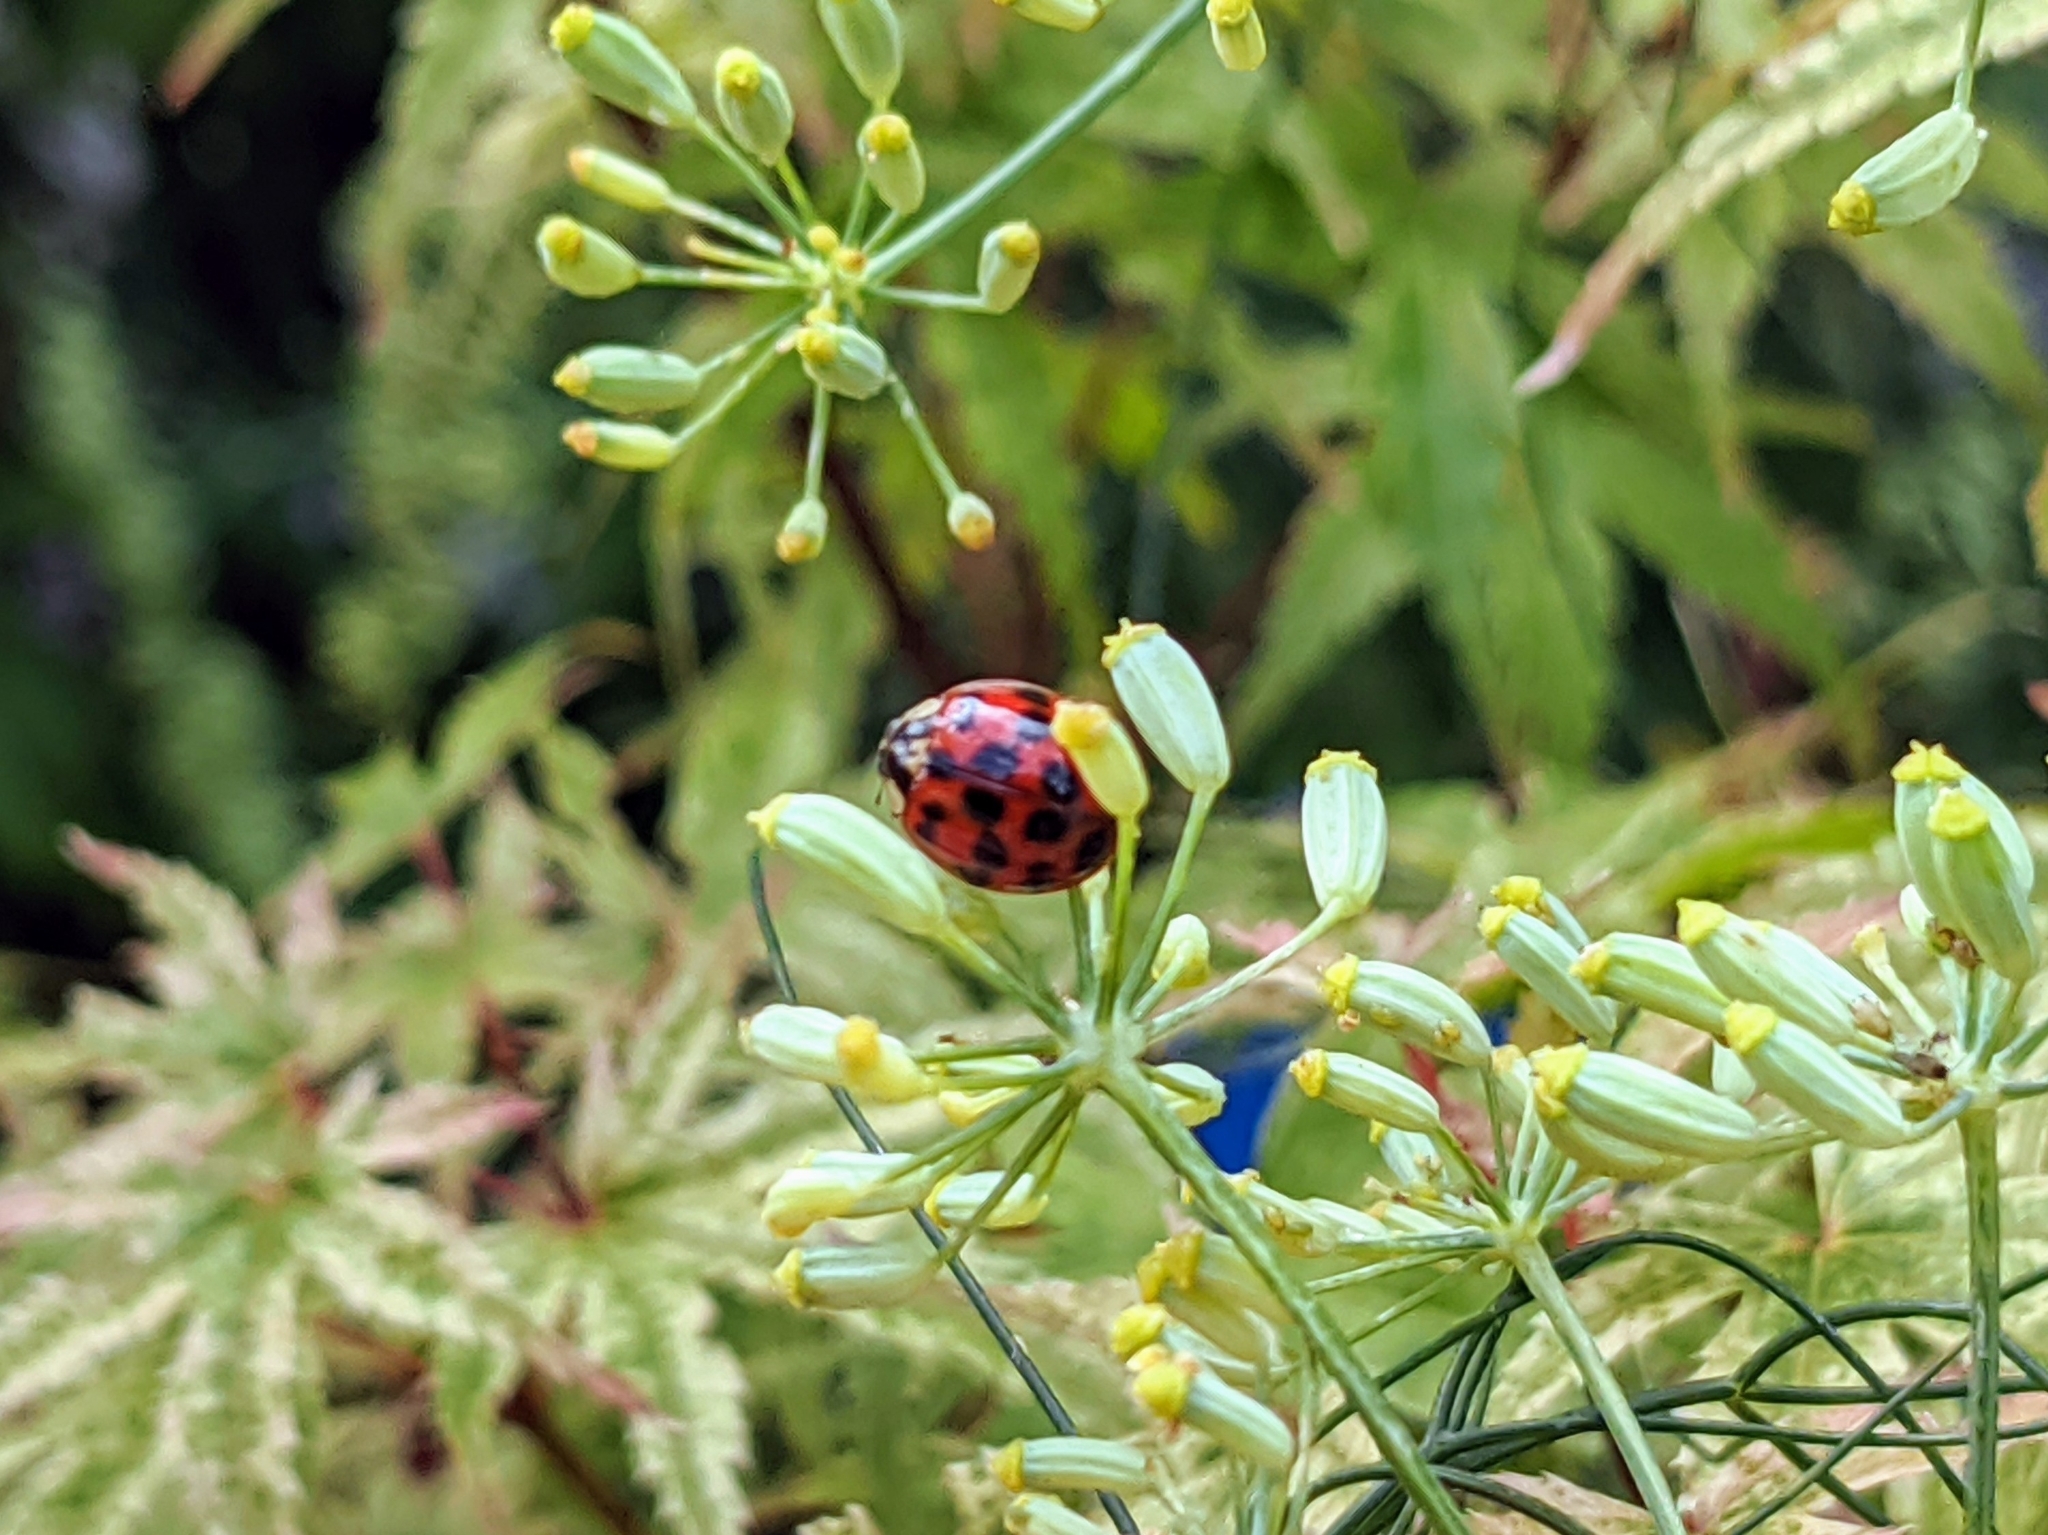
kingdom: Animalia
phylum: Arthropoda
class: Insecta
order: Coleoptera
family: Coccinellidae
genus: Harmonia
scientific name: Harmonia axyridis
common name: Harlequin ladybird
